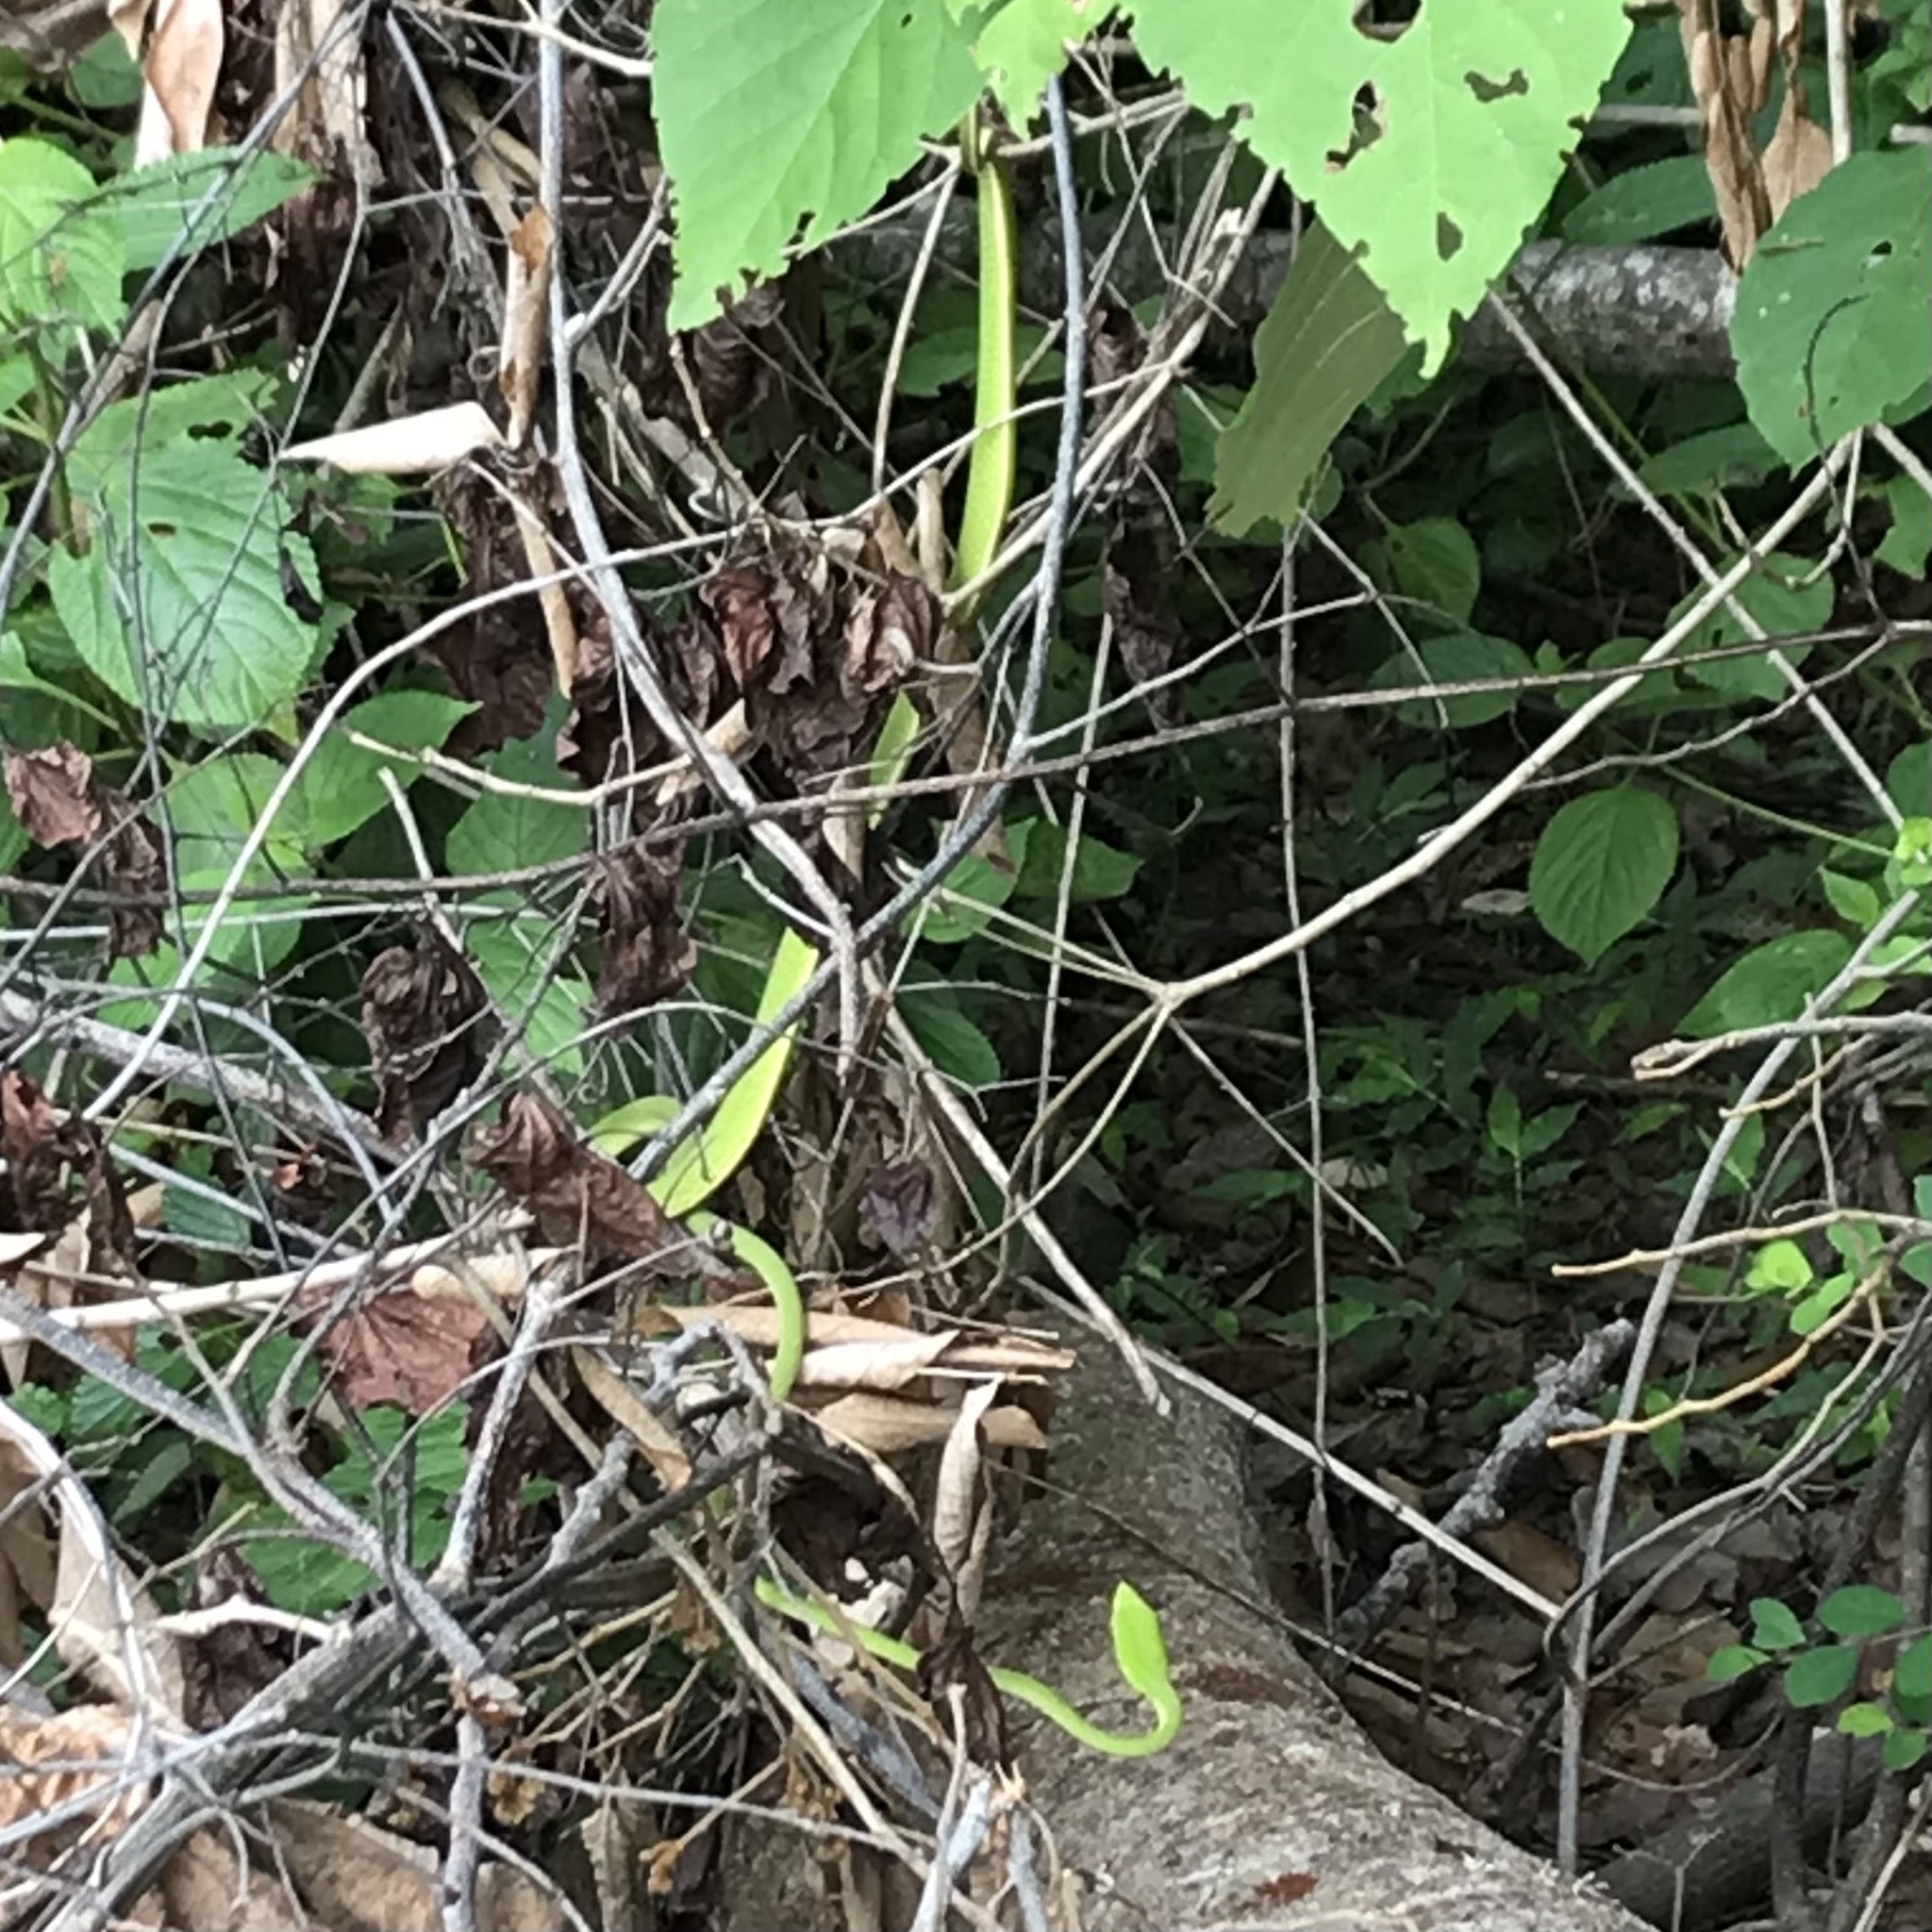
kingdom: Animalia
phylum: Chordata
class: Squamata
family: Colubridae
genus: Ahaetulla
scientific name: Ahaetulla prasina
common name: Oriental whip snake
